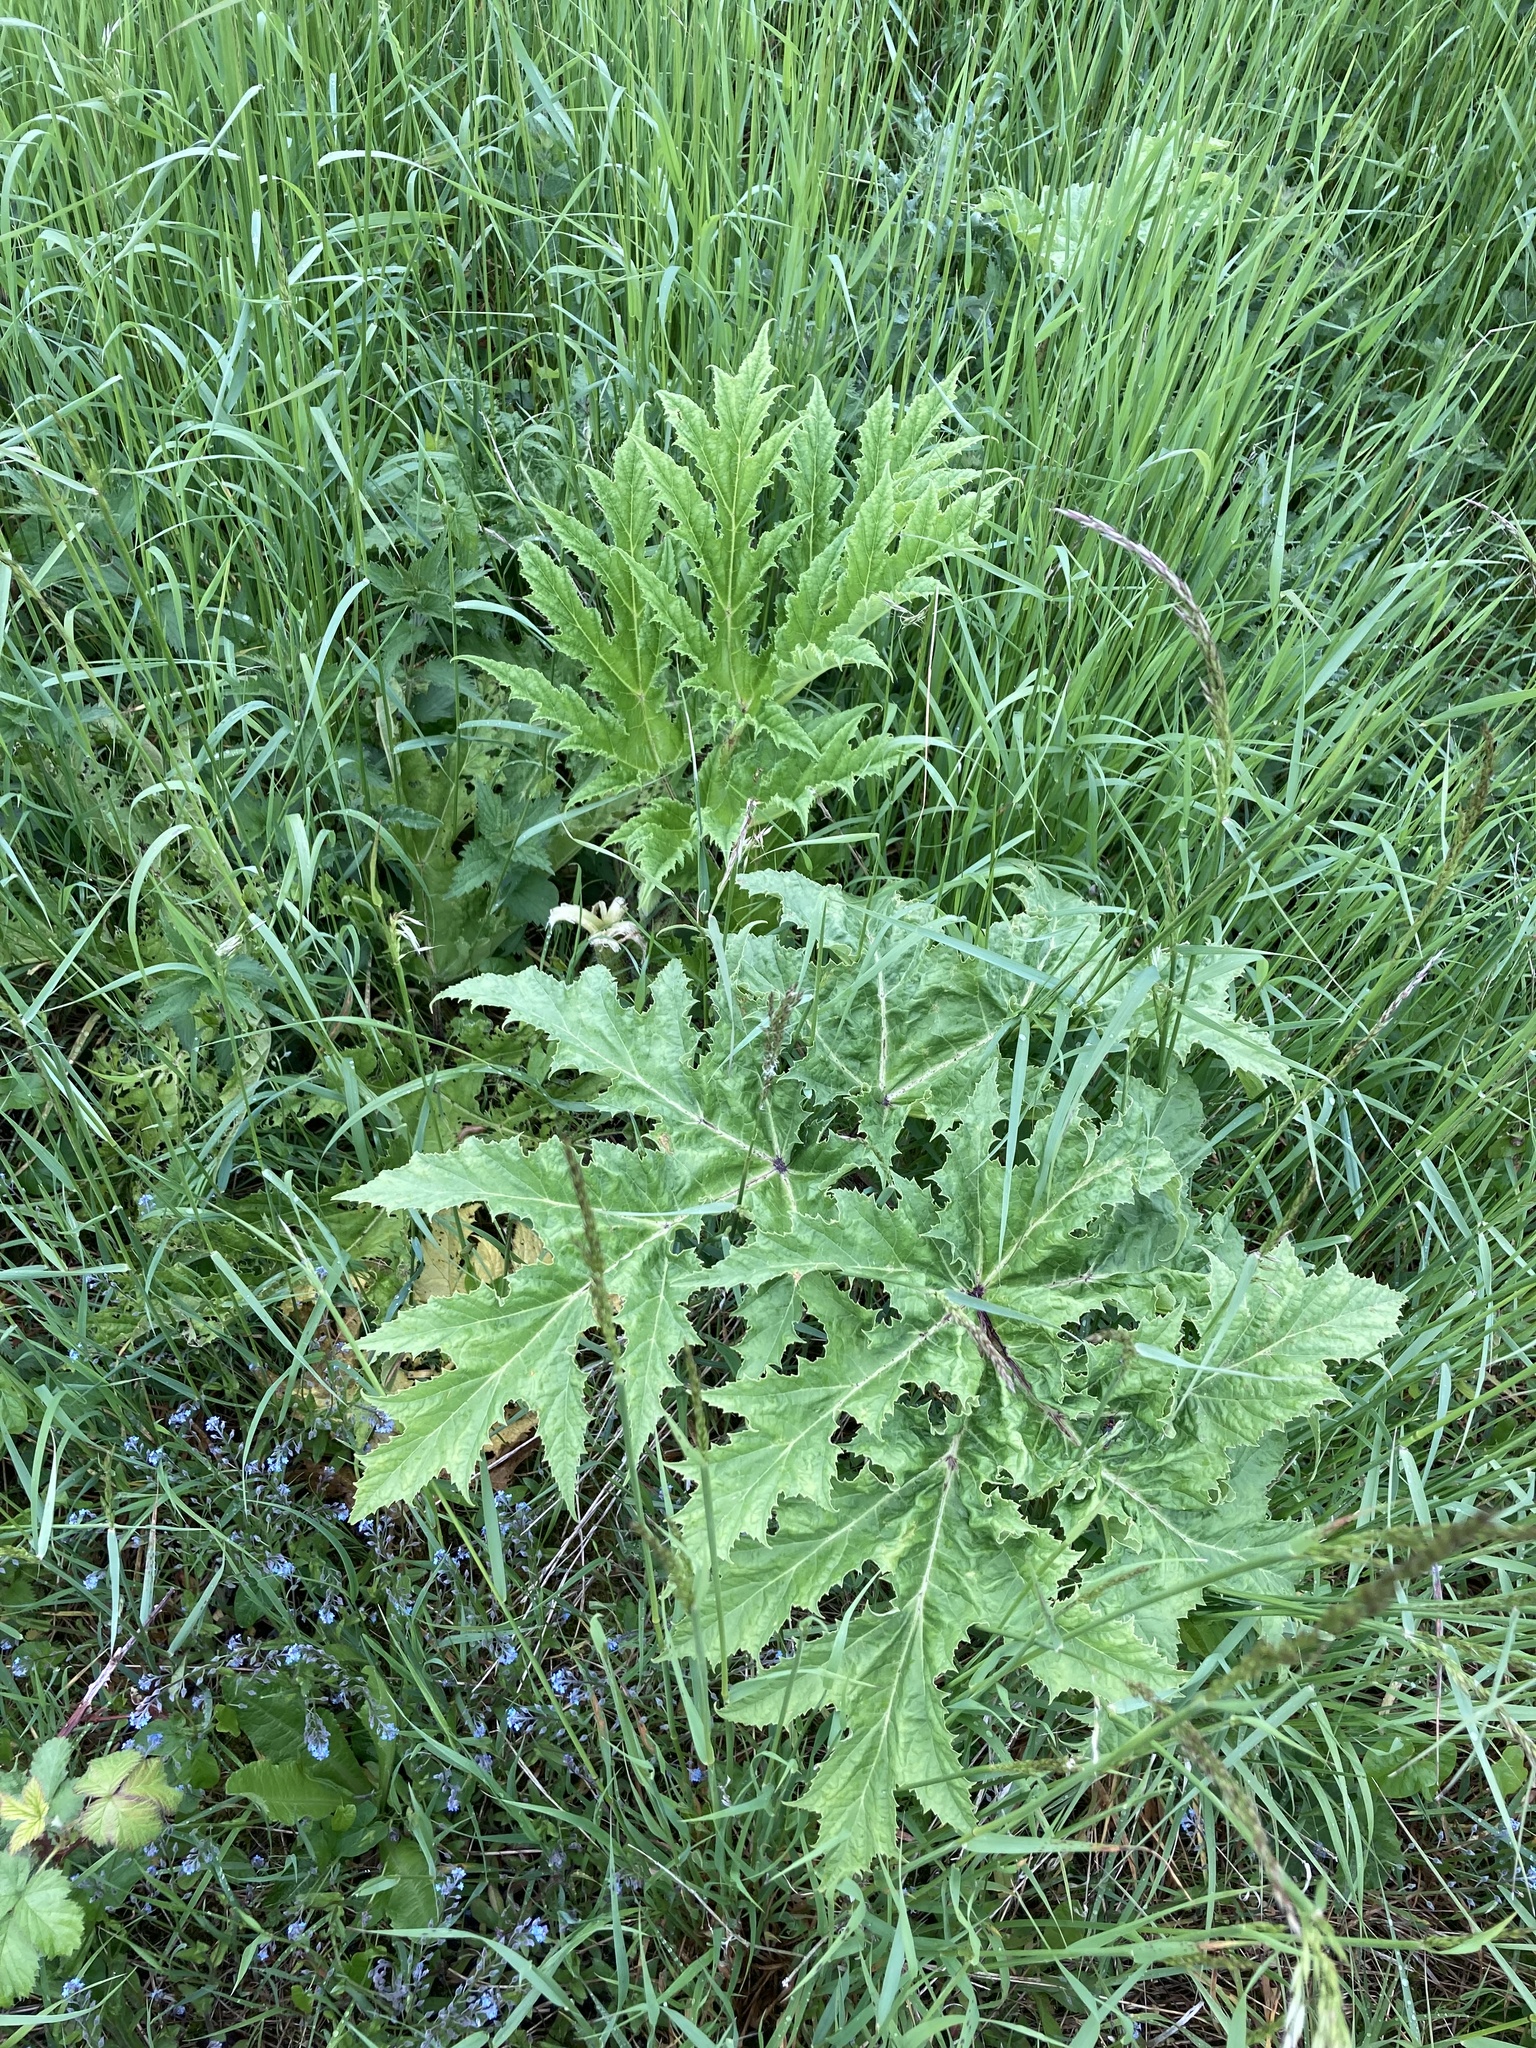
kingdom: Plantae
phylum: Tracheophyta
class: Magnoliopsida
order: Apiales
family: Apiaceae
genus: Heracleum
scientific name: Heracleum mantegazzianum
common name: Giant hogweed
